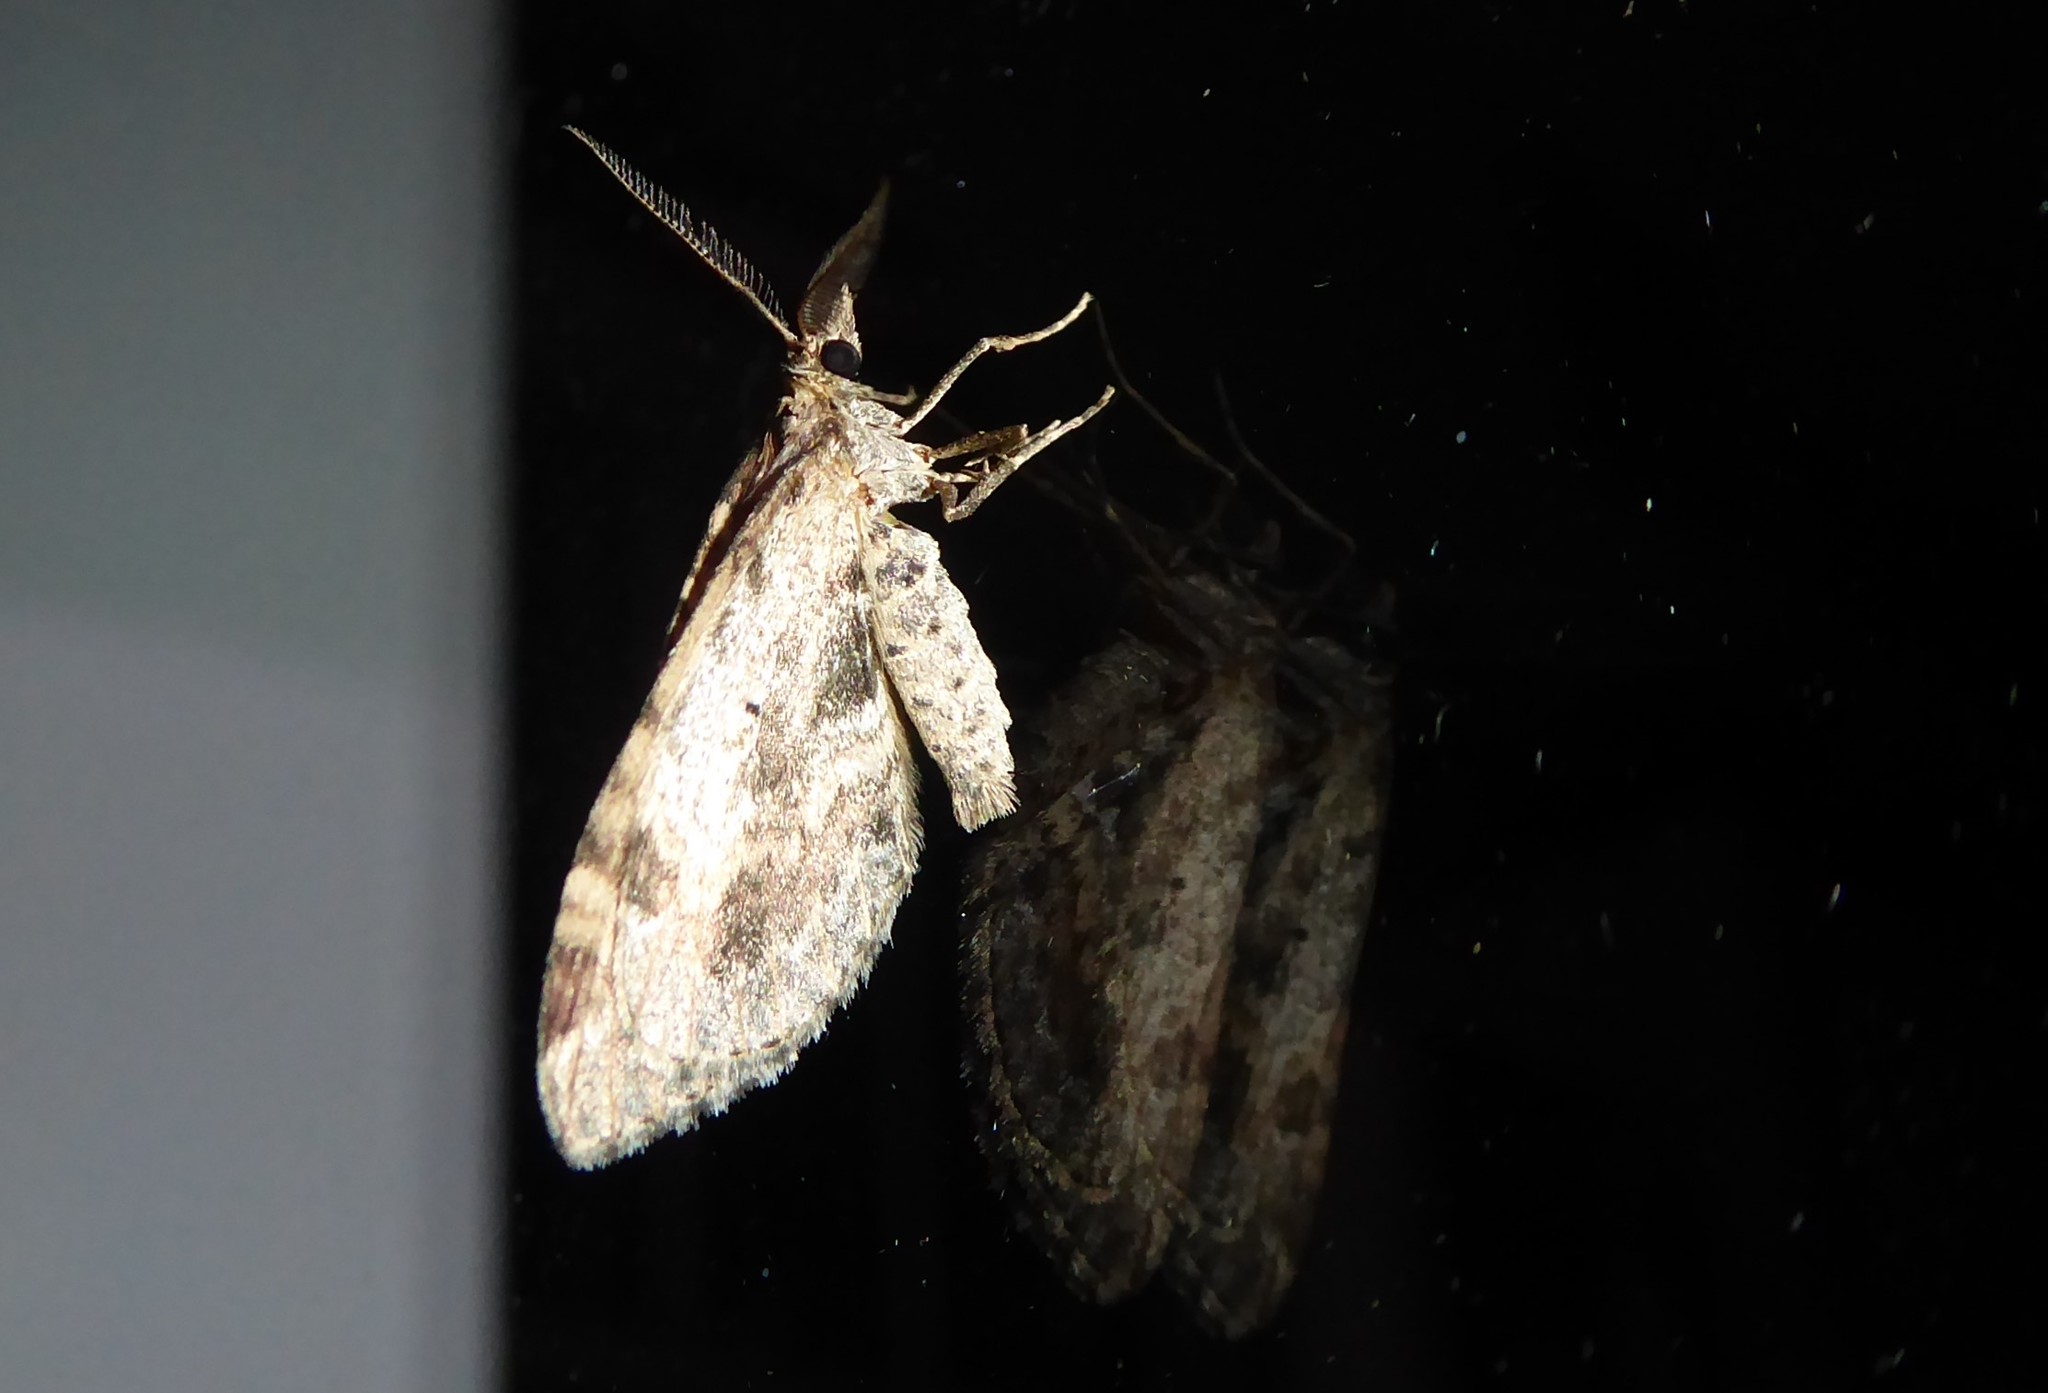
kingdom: Animalia
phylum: Arthropoda
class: Insecta
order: Lepidoptera
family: Geometridae
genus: Asaphodes
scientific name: Asaphodes aegrota
